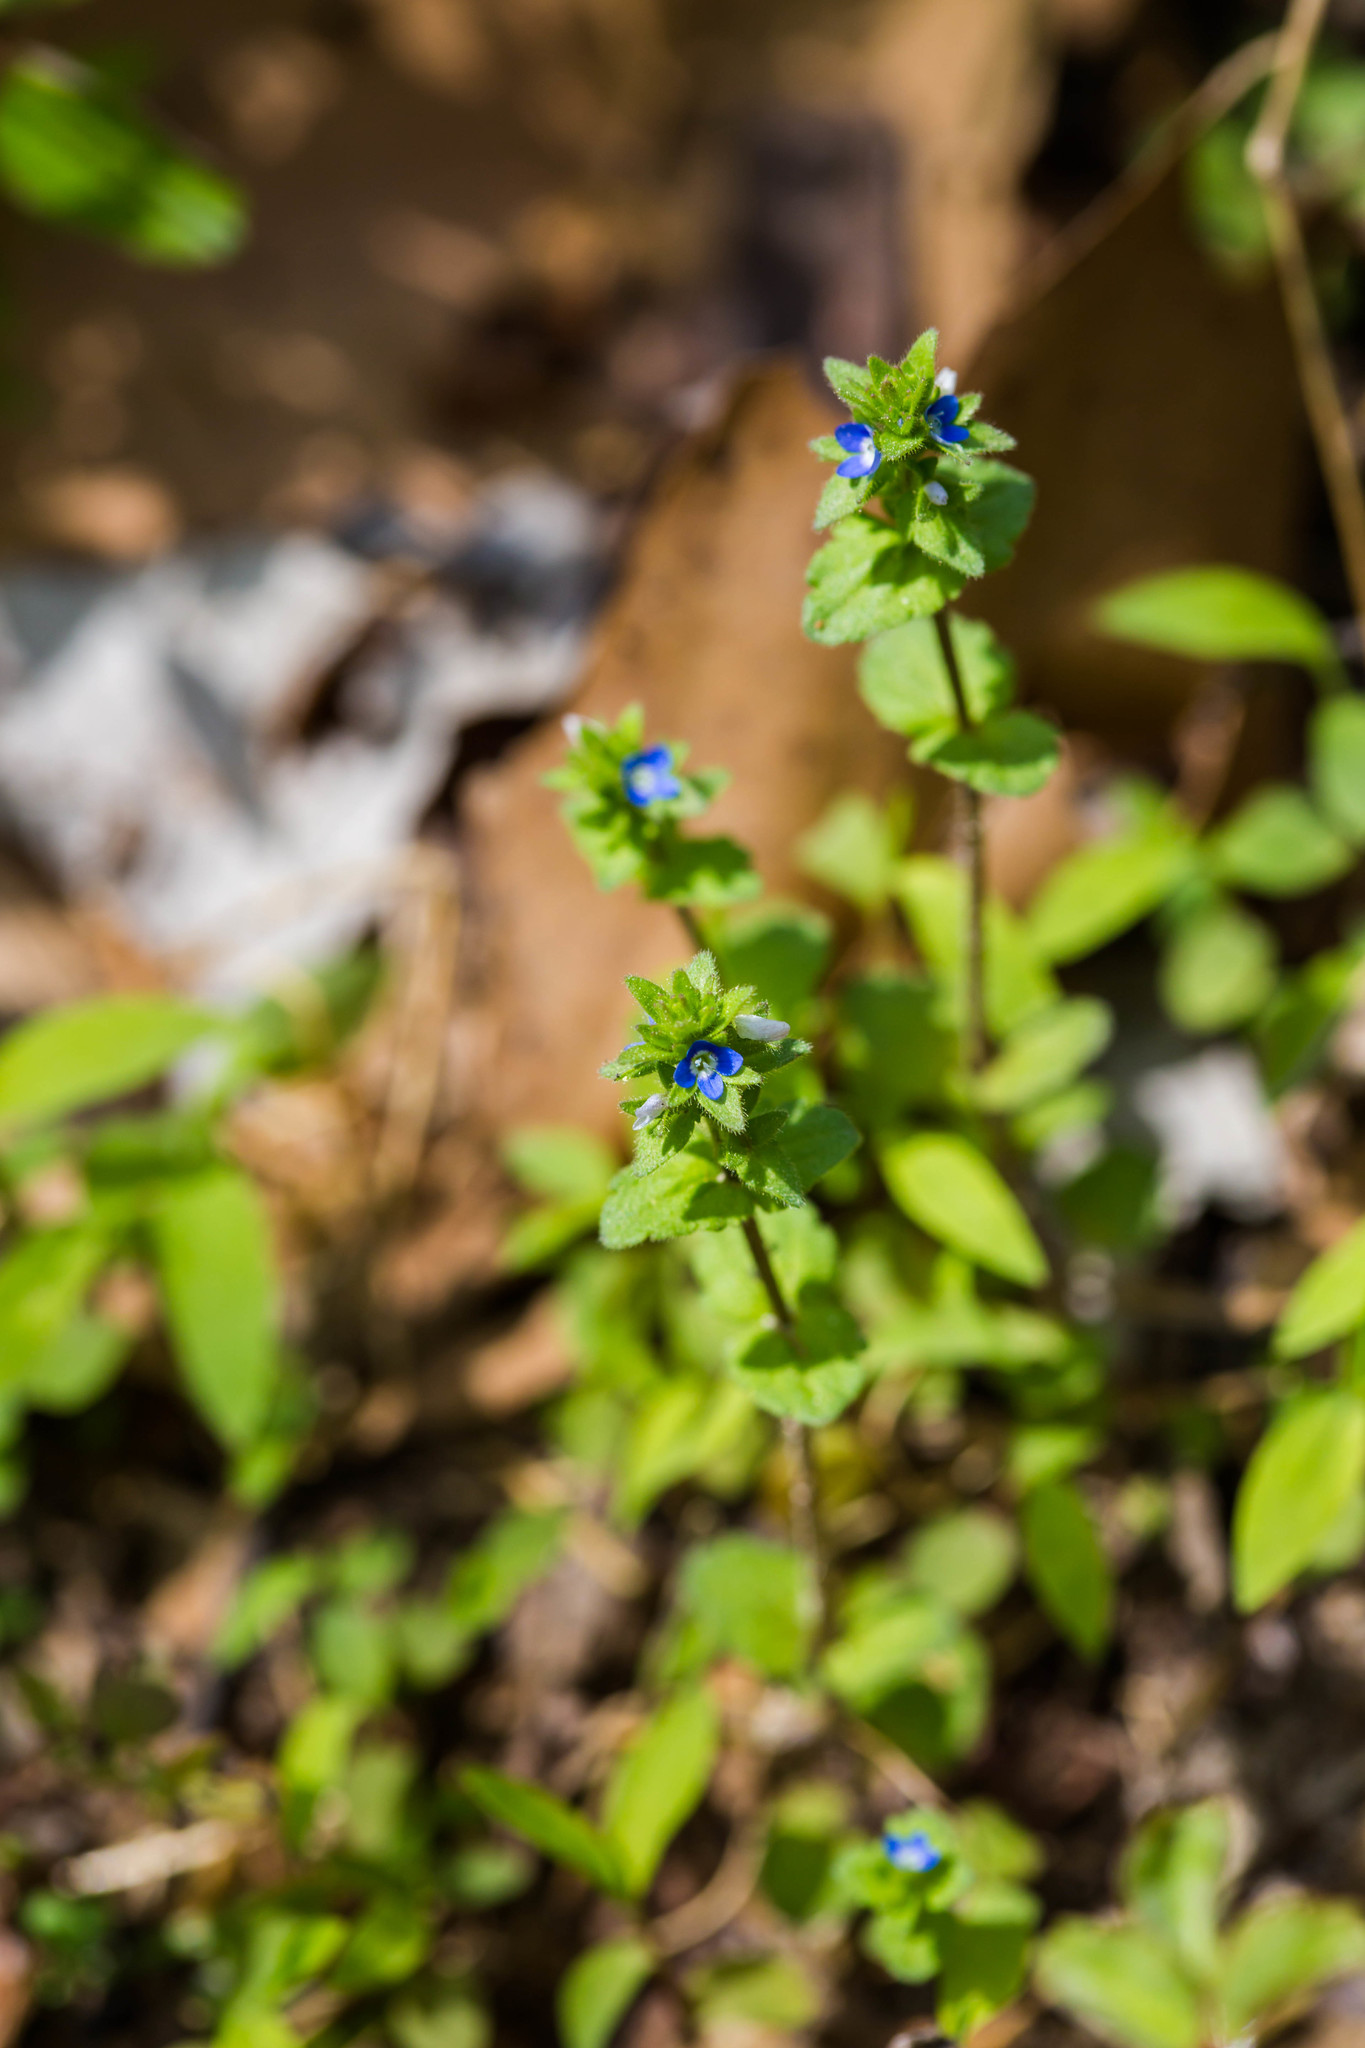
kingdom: Plantae
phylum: Tracheophyta
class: Magnoliopsida
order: Lamiales
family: Plantaginaceae
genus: Veronica
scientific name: Veronica arvensis
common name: Corn speedwell
